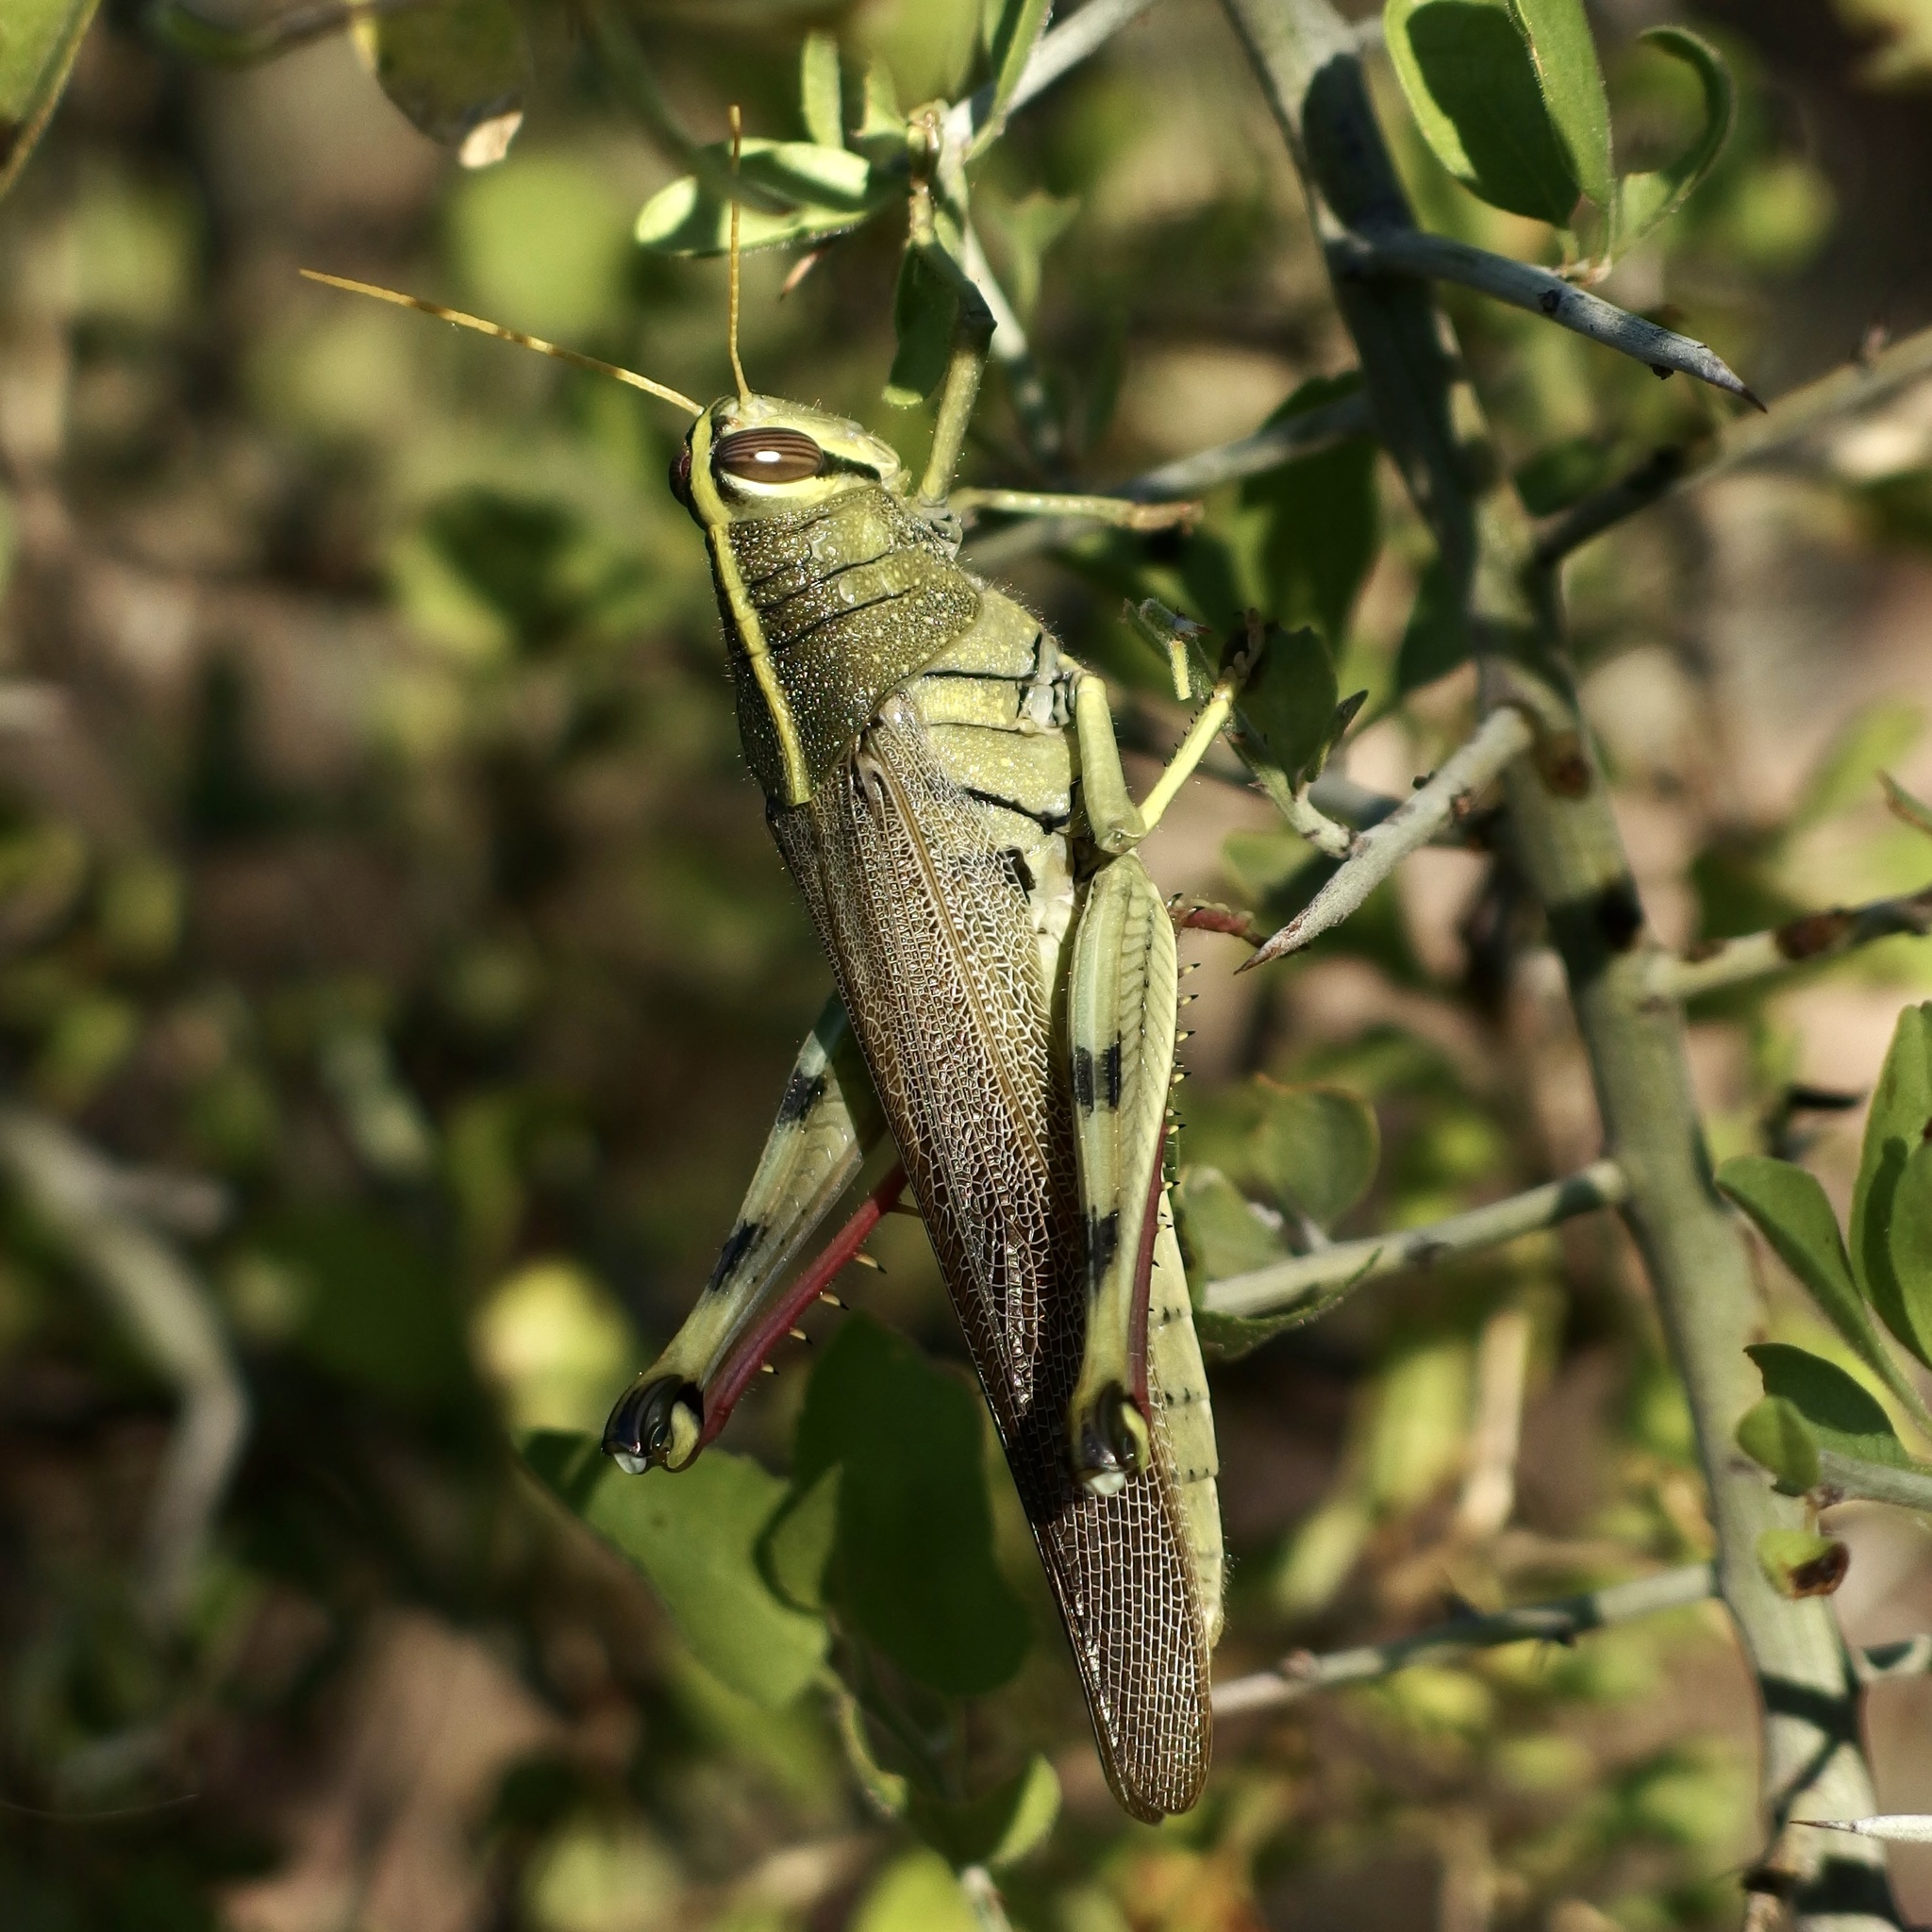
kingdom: Animalia
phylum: Arthropoda
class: Insecta
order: Orthoptera
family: Acrididae
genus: Schistocerca
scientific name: Schistocerca albolineata
